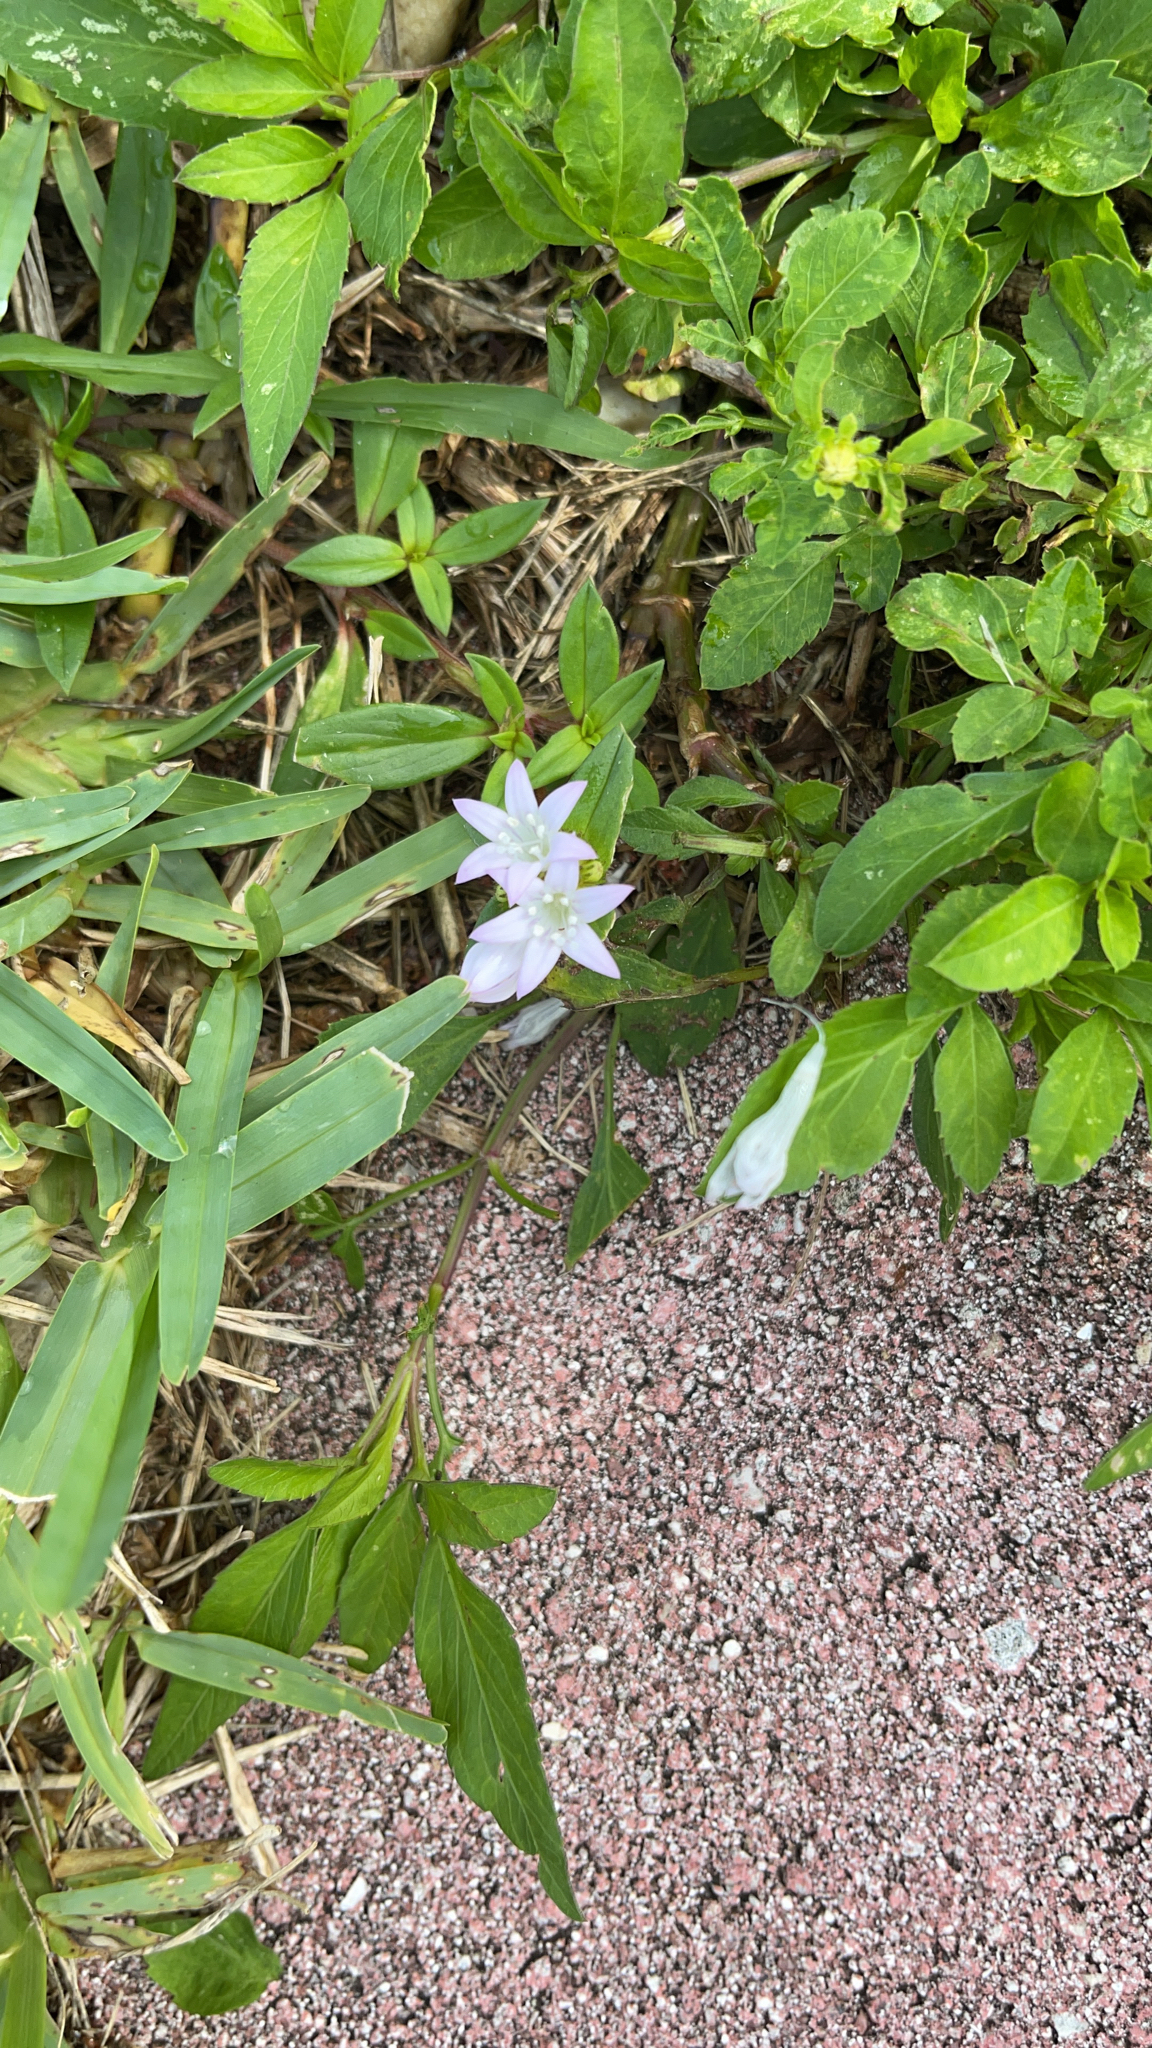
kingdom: Plantae
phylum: Tracheophyta
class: Magnoliopsida
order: Gentianales
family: Rubiaceae
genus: Richardia
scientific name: Richardia grandiflora
